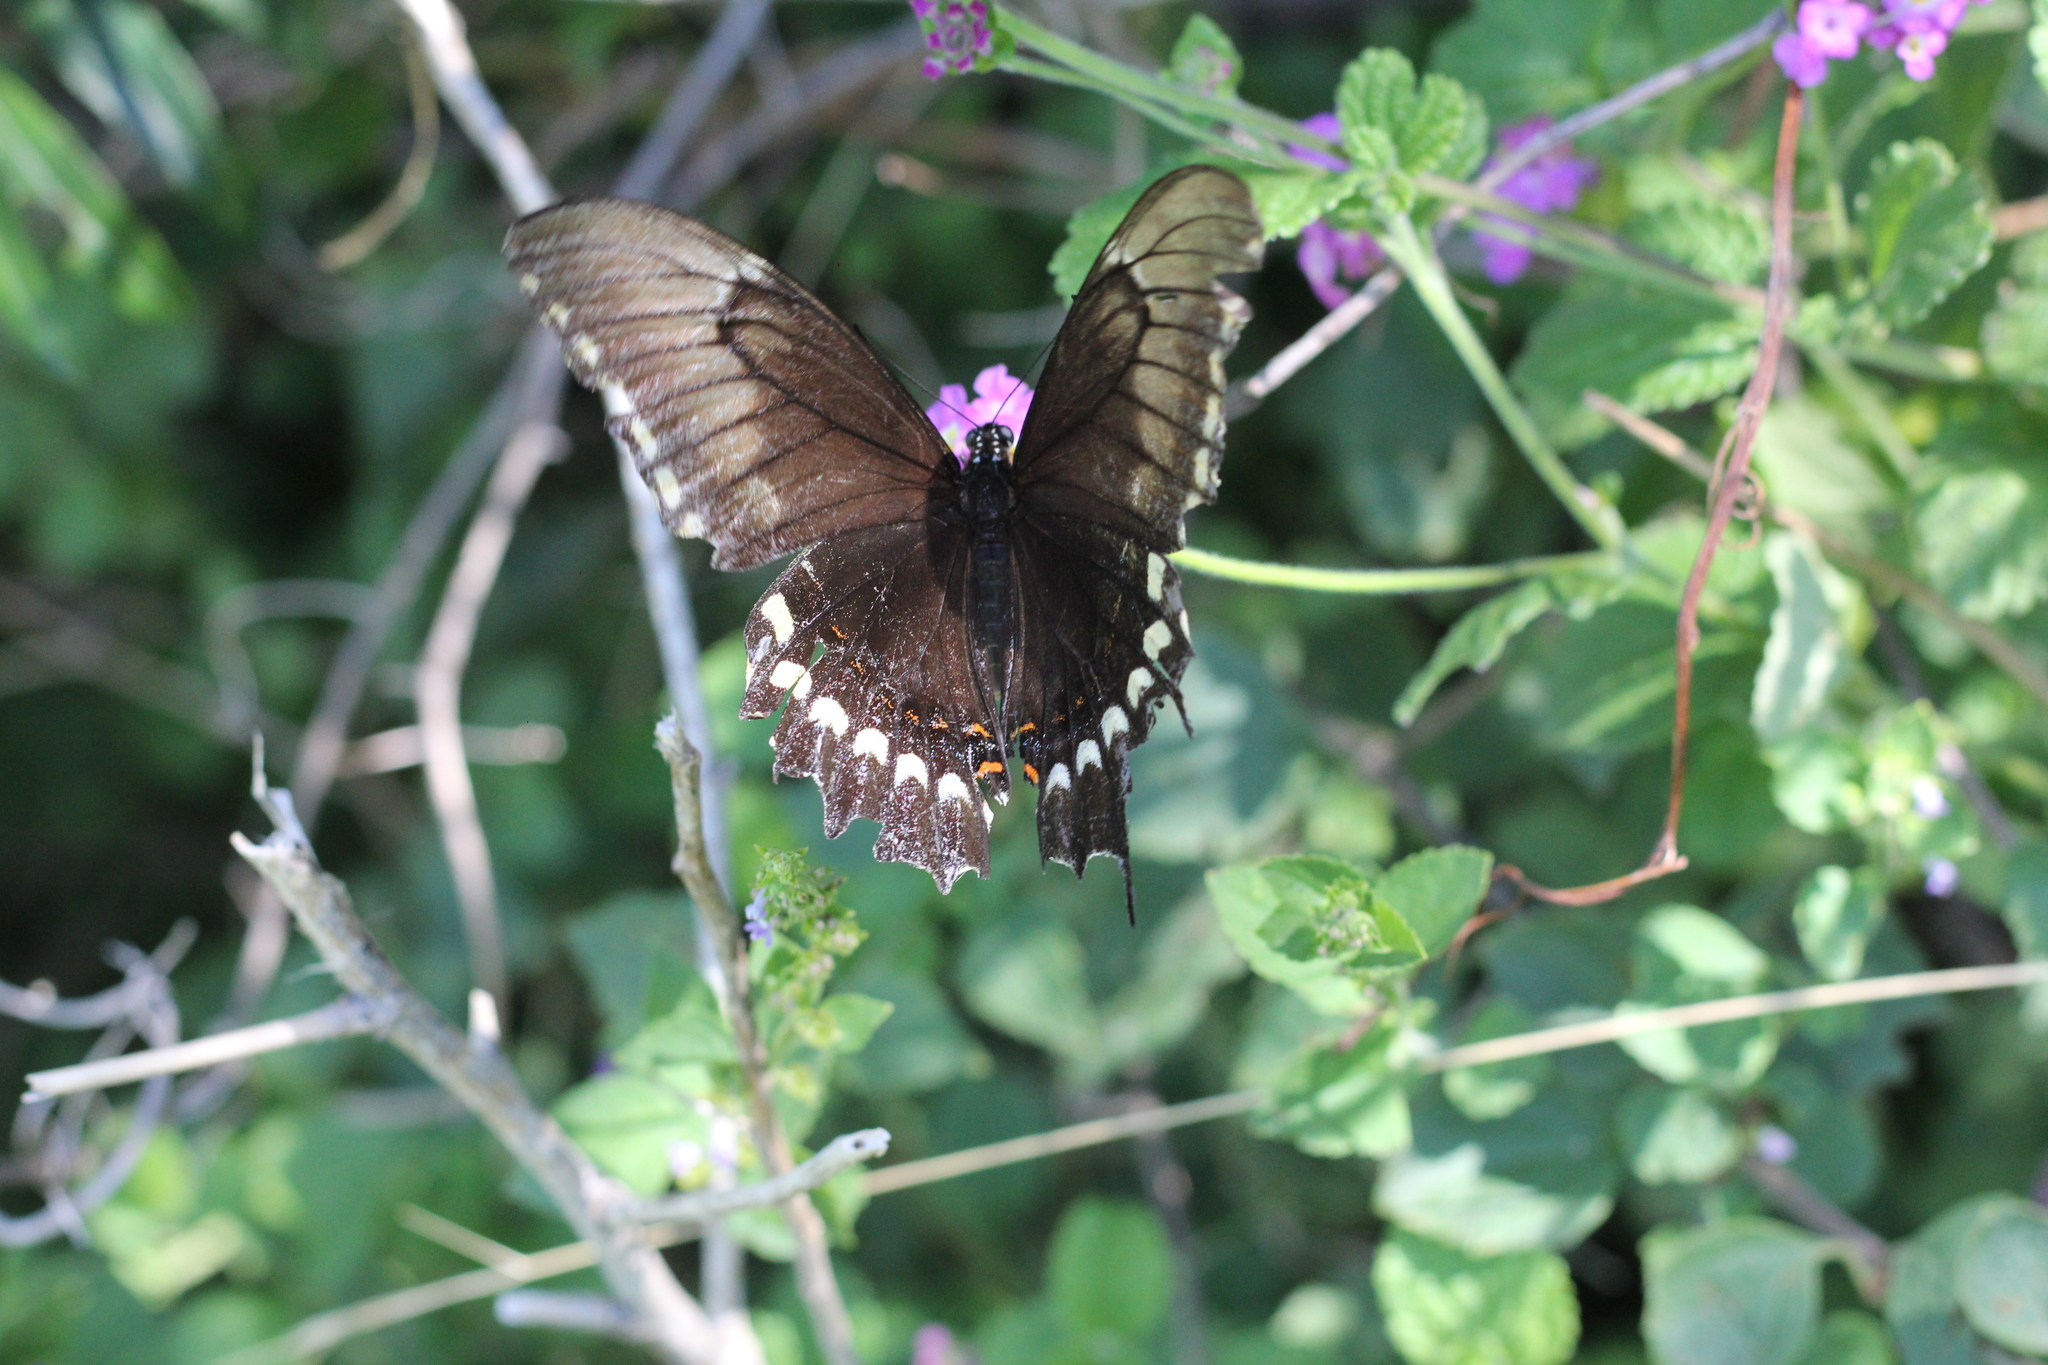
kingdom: Animalia
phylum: Arthropoda
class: Insecta
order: Lepidoptera
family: Papilionidae
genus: Papilio
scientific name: Papilio astyalus
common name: Astyalus swallowtail
